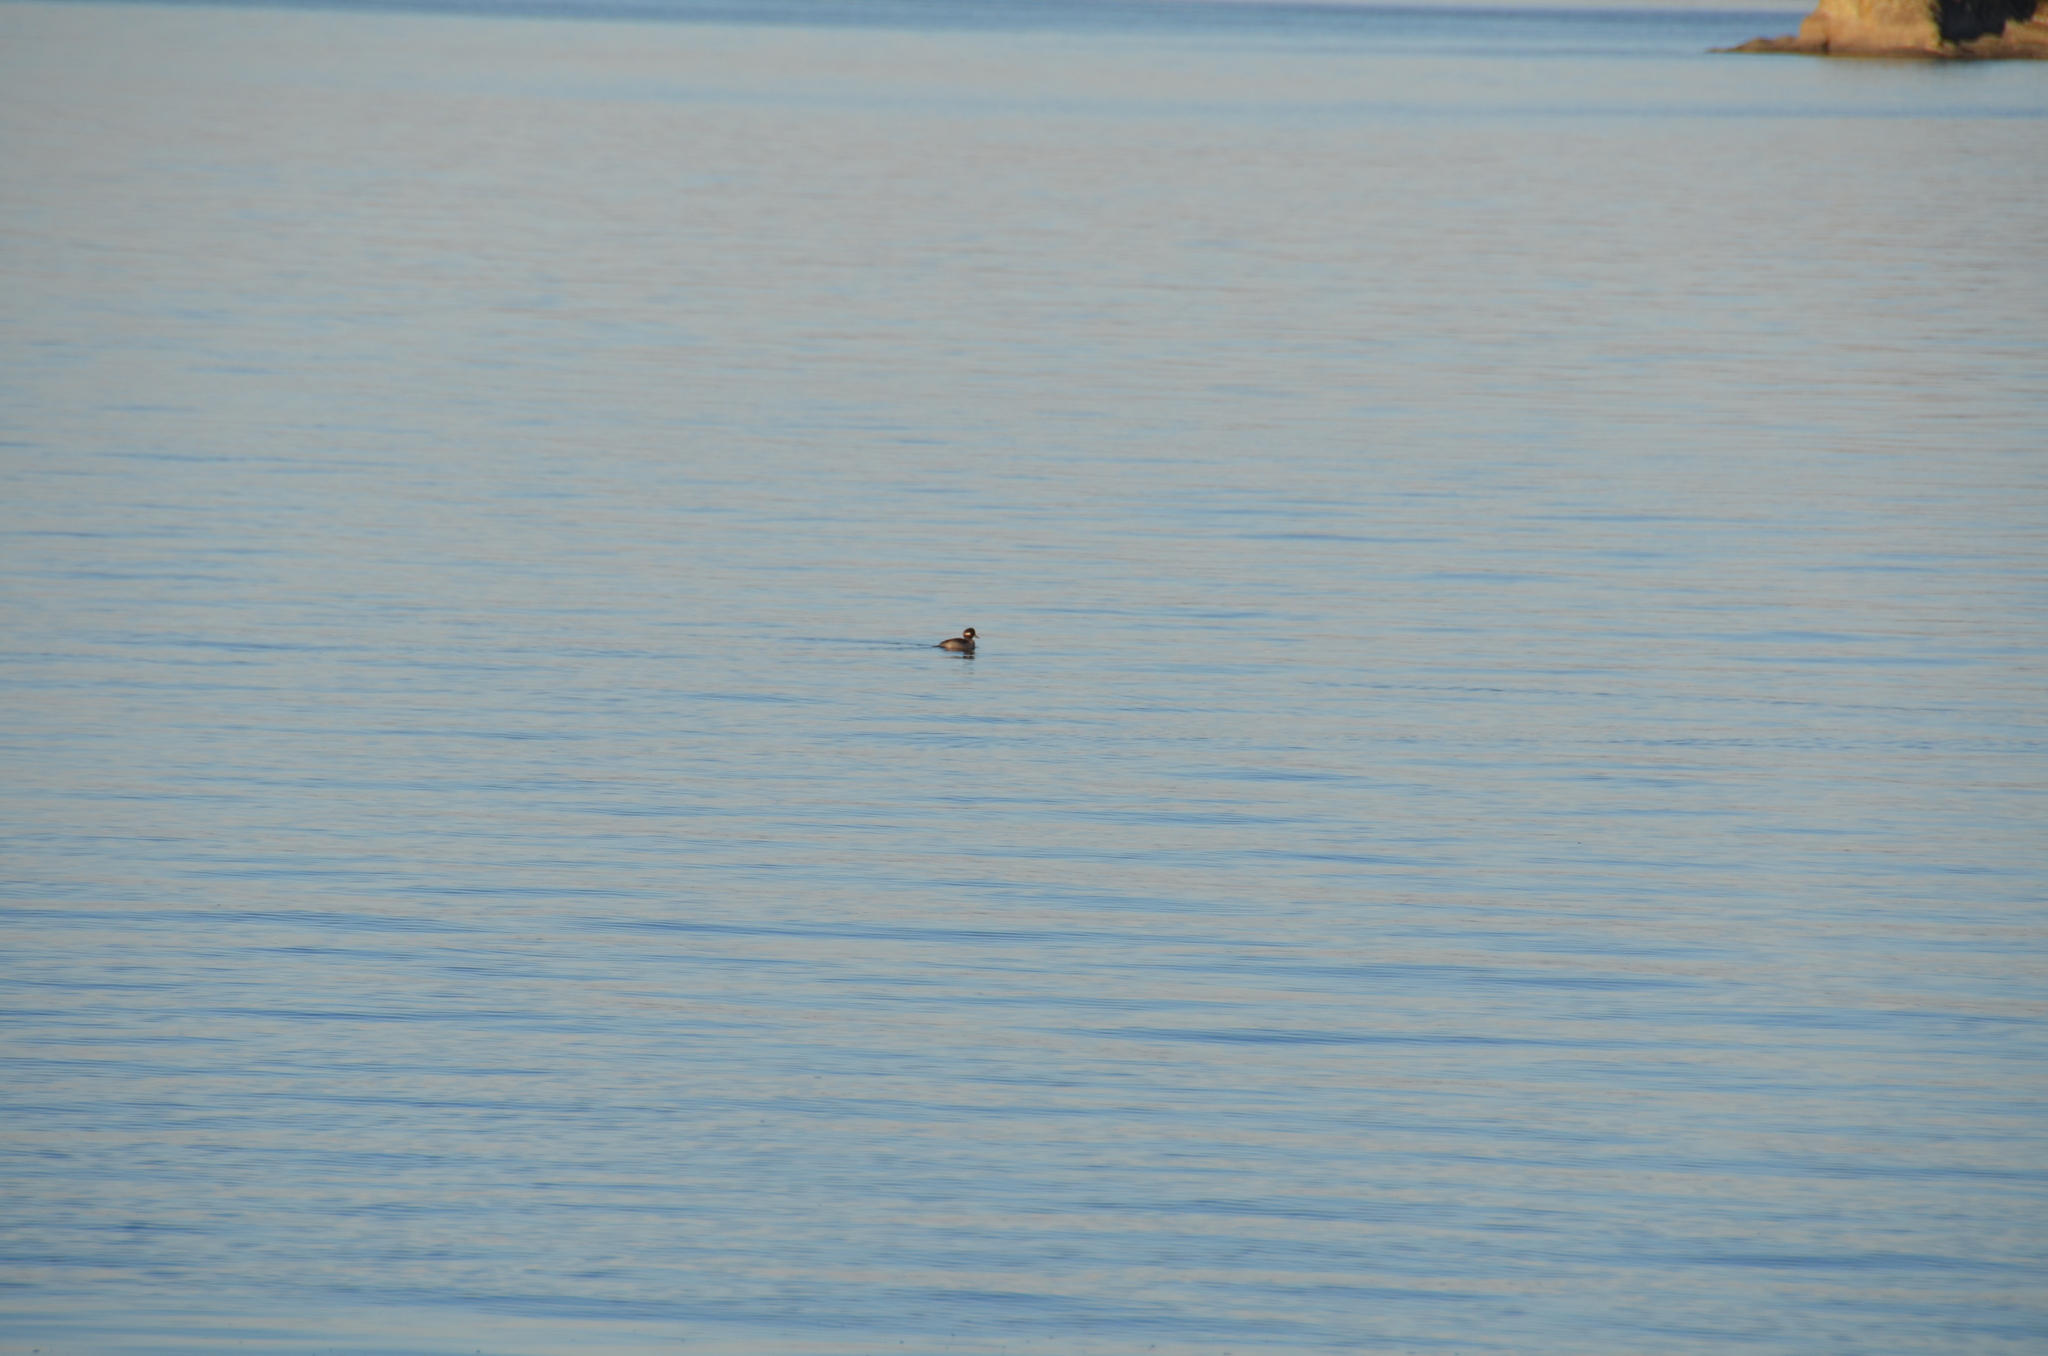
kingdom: Animalia
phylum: Chordata
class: Aves
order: Anseriformes
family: Anatidae
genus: Bucephala
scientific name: Bucephala albeola
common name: Bufflehead
